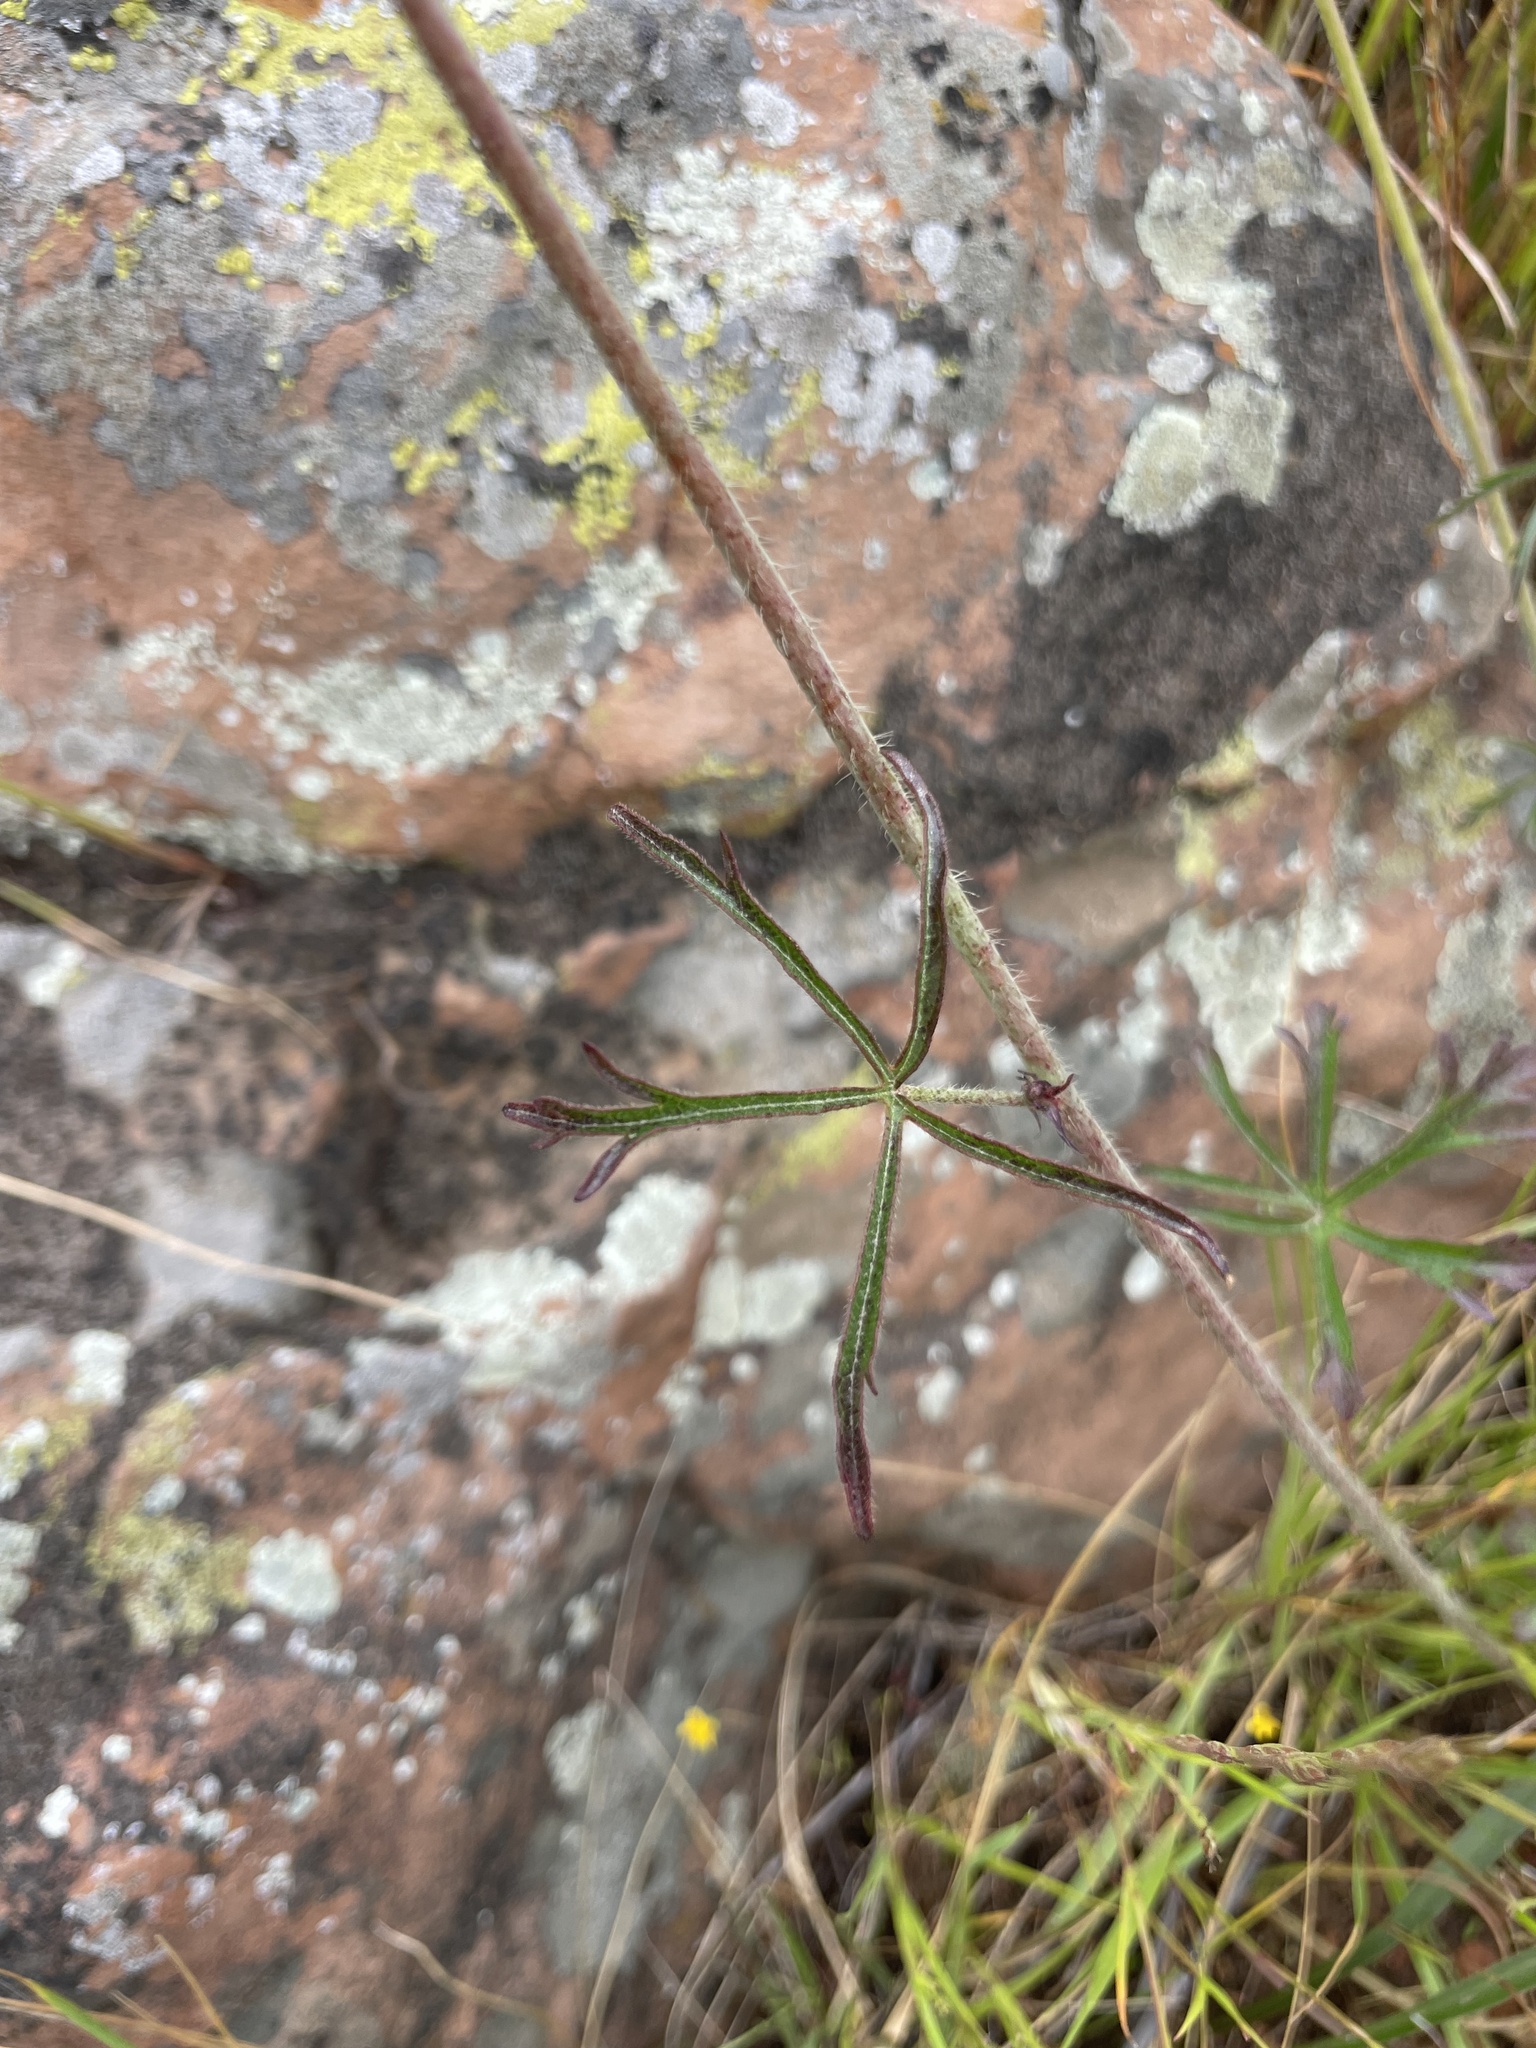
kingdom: Plantae
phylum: Tracheophyta
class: Magnoliopsida
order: Malvales
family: Malvaceae
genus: Sidalcea
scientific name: Sidalcea sparsifolia
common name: Southern checkerbloom
